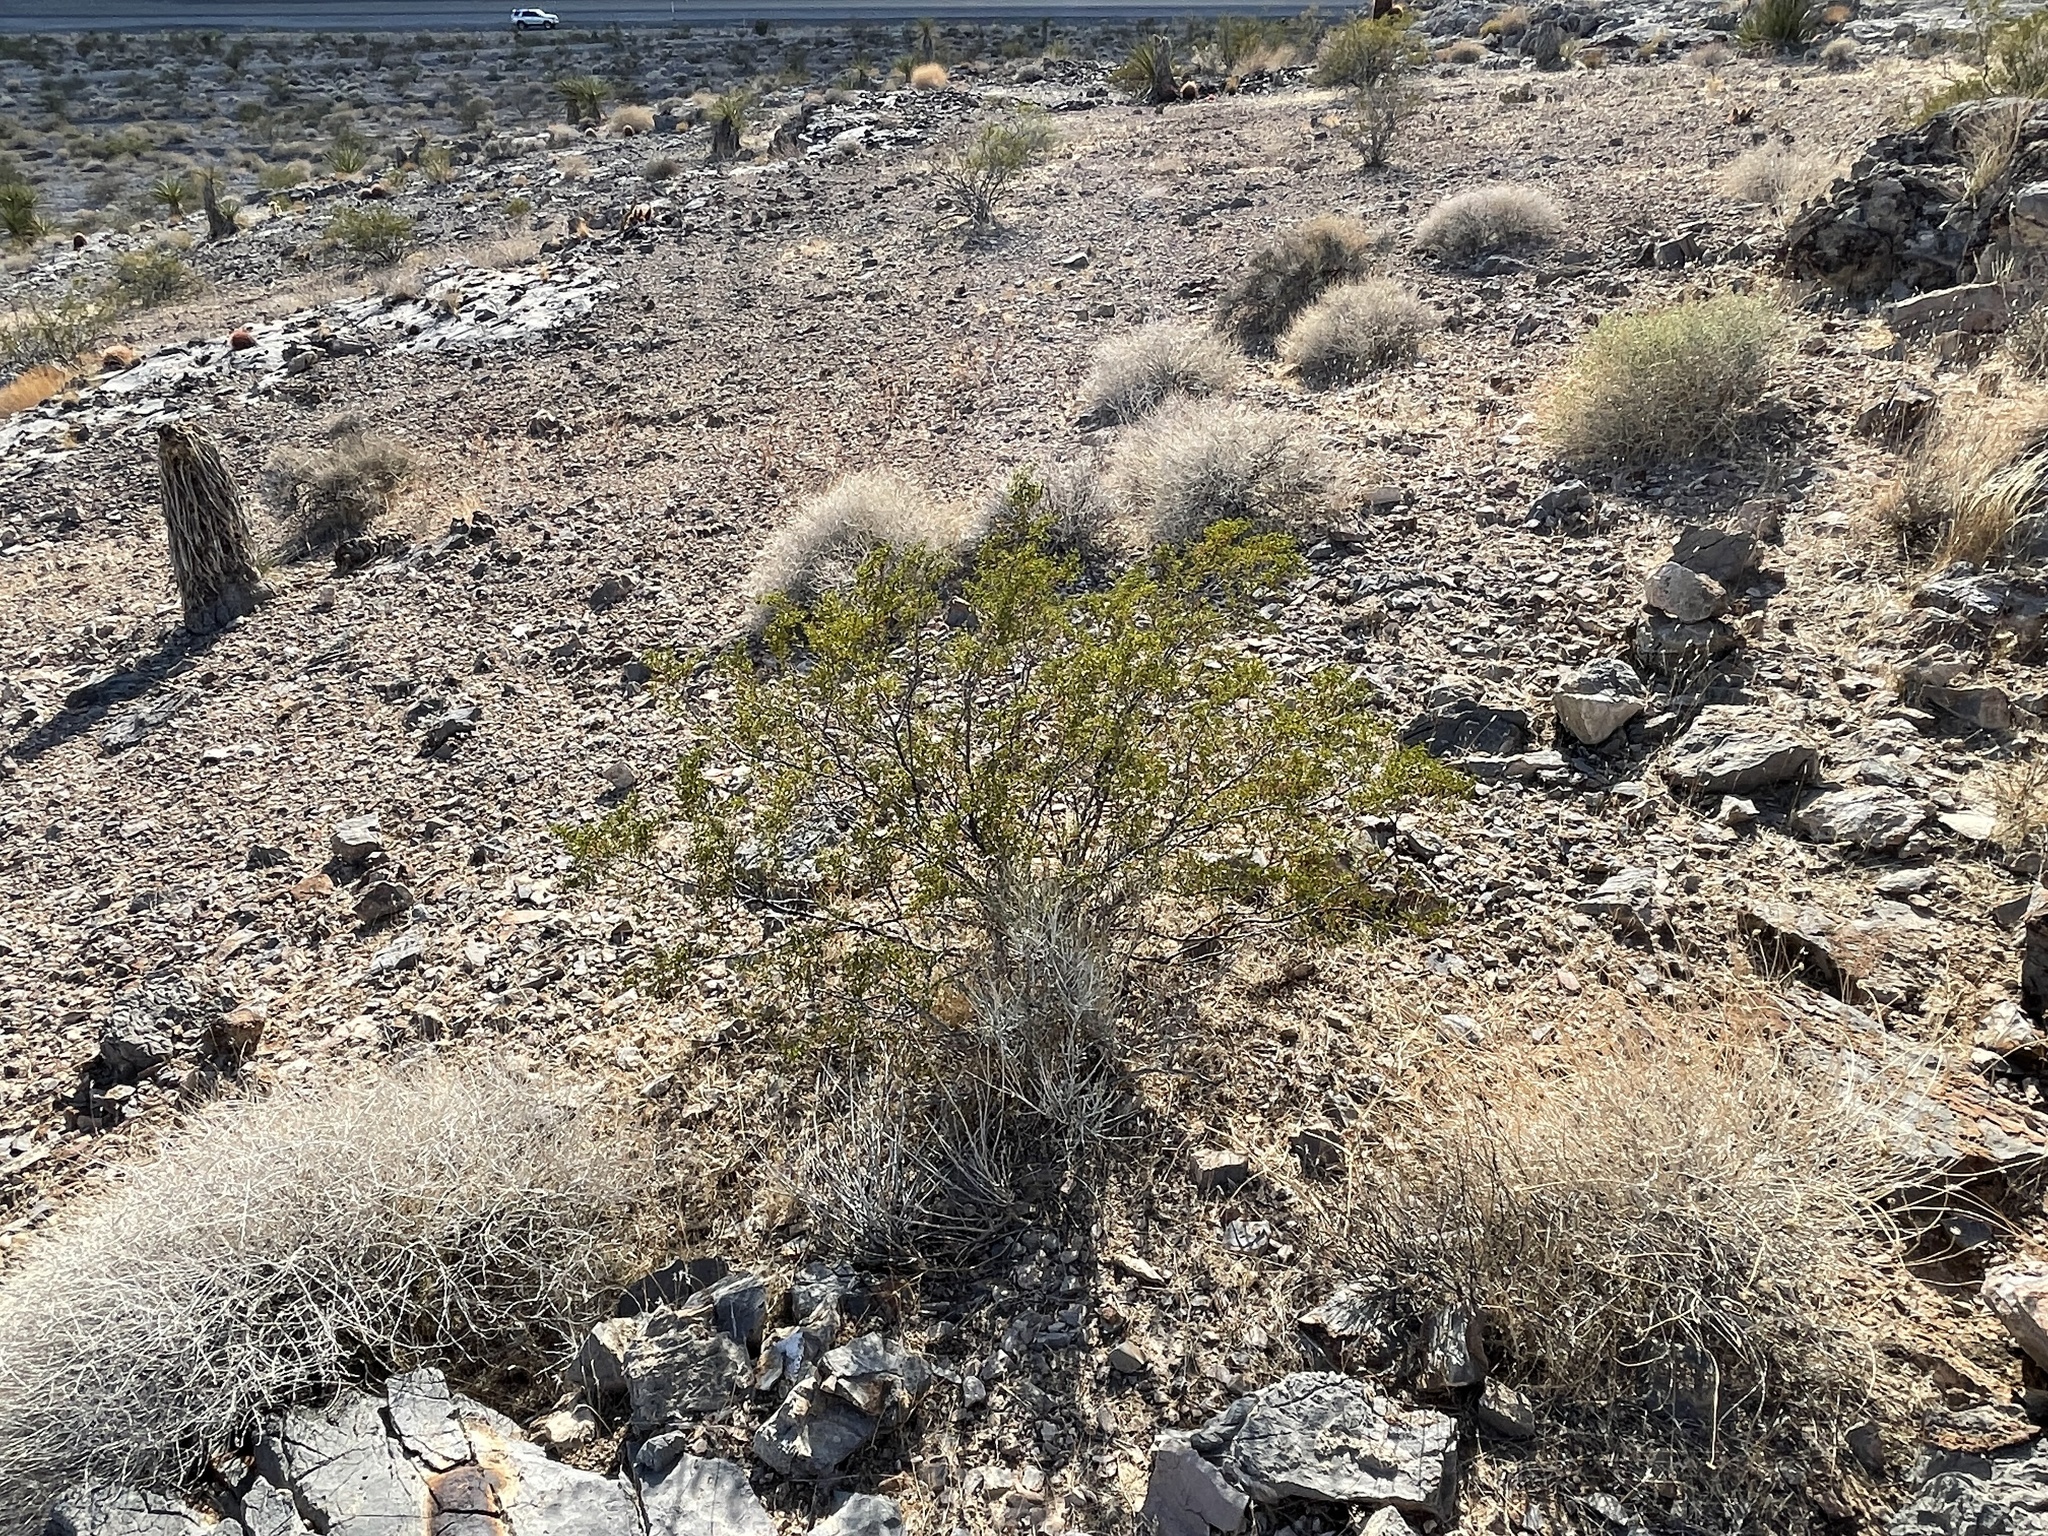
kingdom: Plantae
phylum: Tracheophyta
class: Magnoliopsida
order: Zygophyllales
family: Zygophyllaceae
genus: Larrea
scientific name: Larrea tridentata
